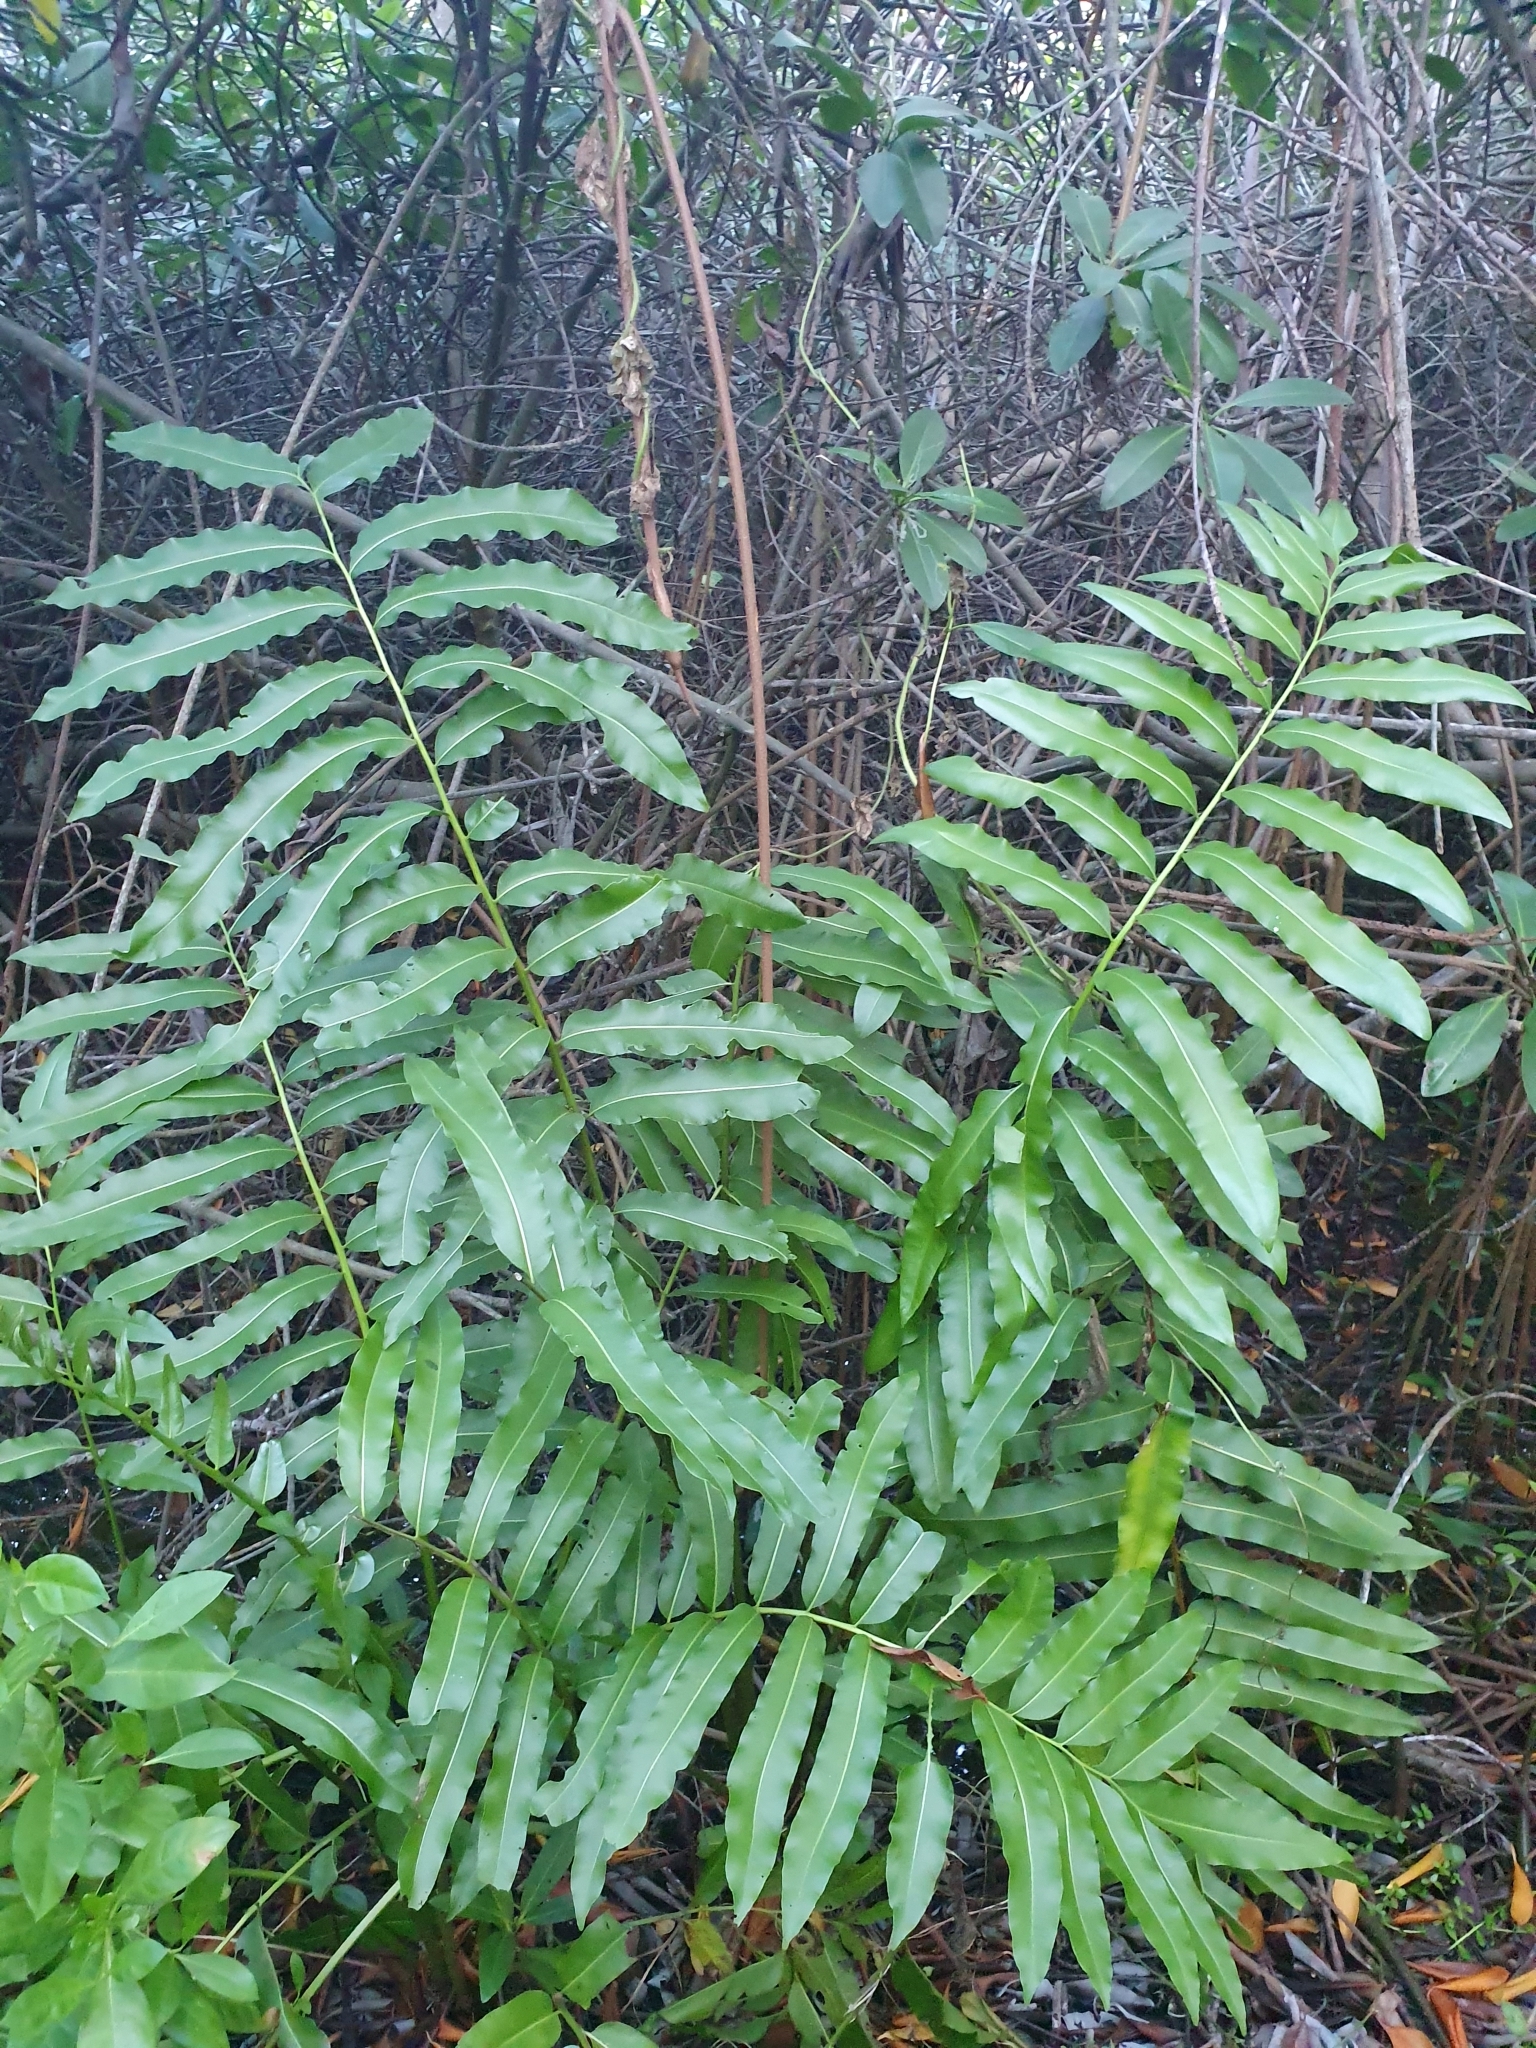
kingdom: Plantae
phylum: Tracheophyta
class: Polypodiopsida
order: Polypodiales
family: Pteridaceae
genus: Acrostichum
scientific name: Acrostichum danaeifolium
